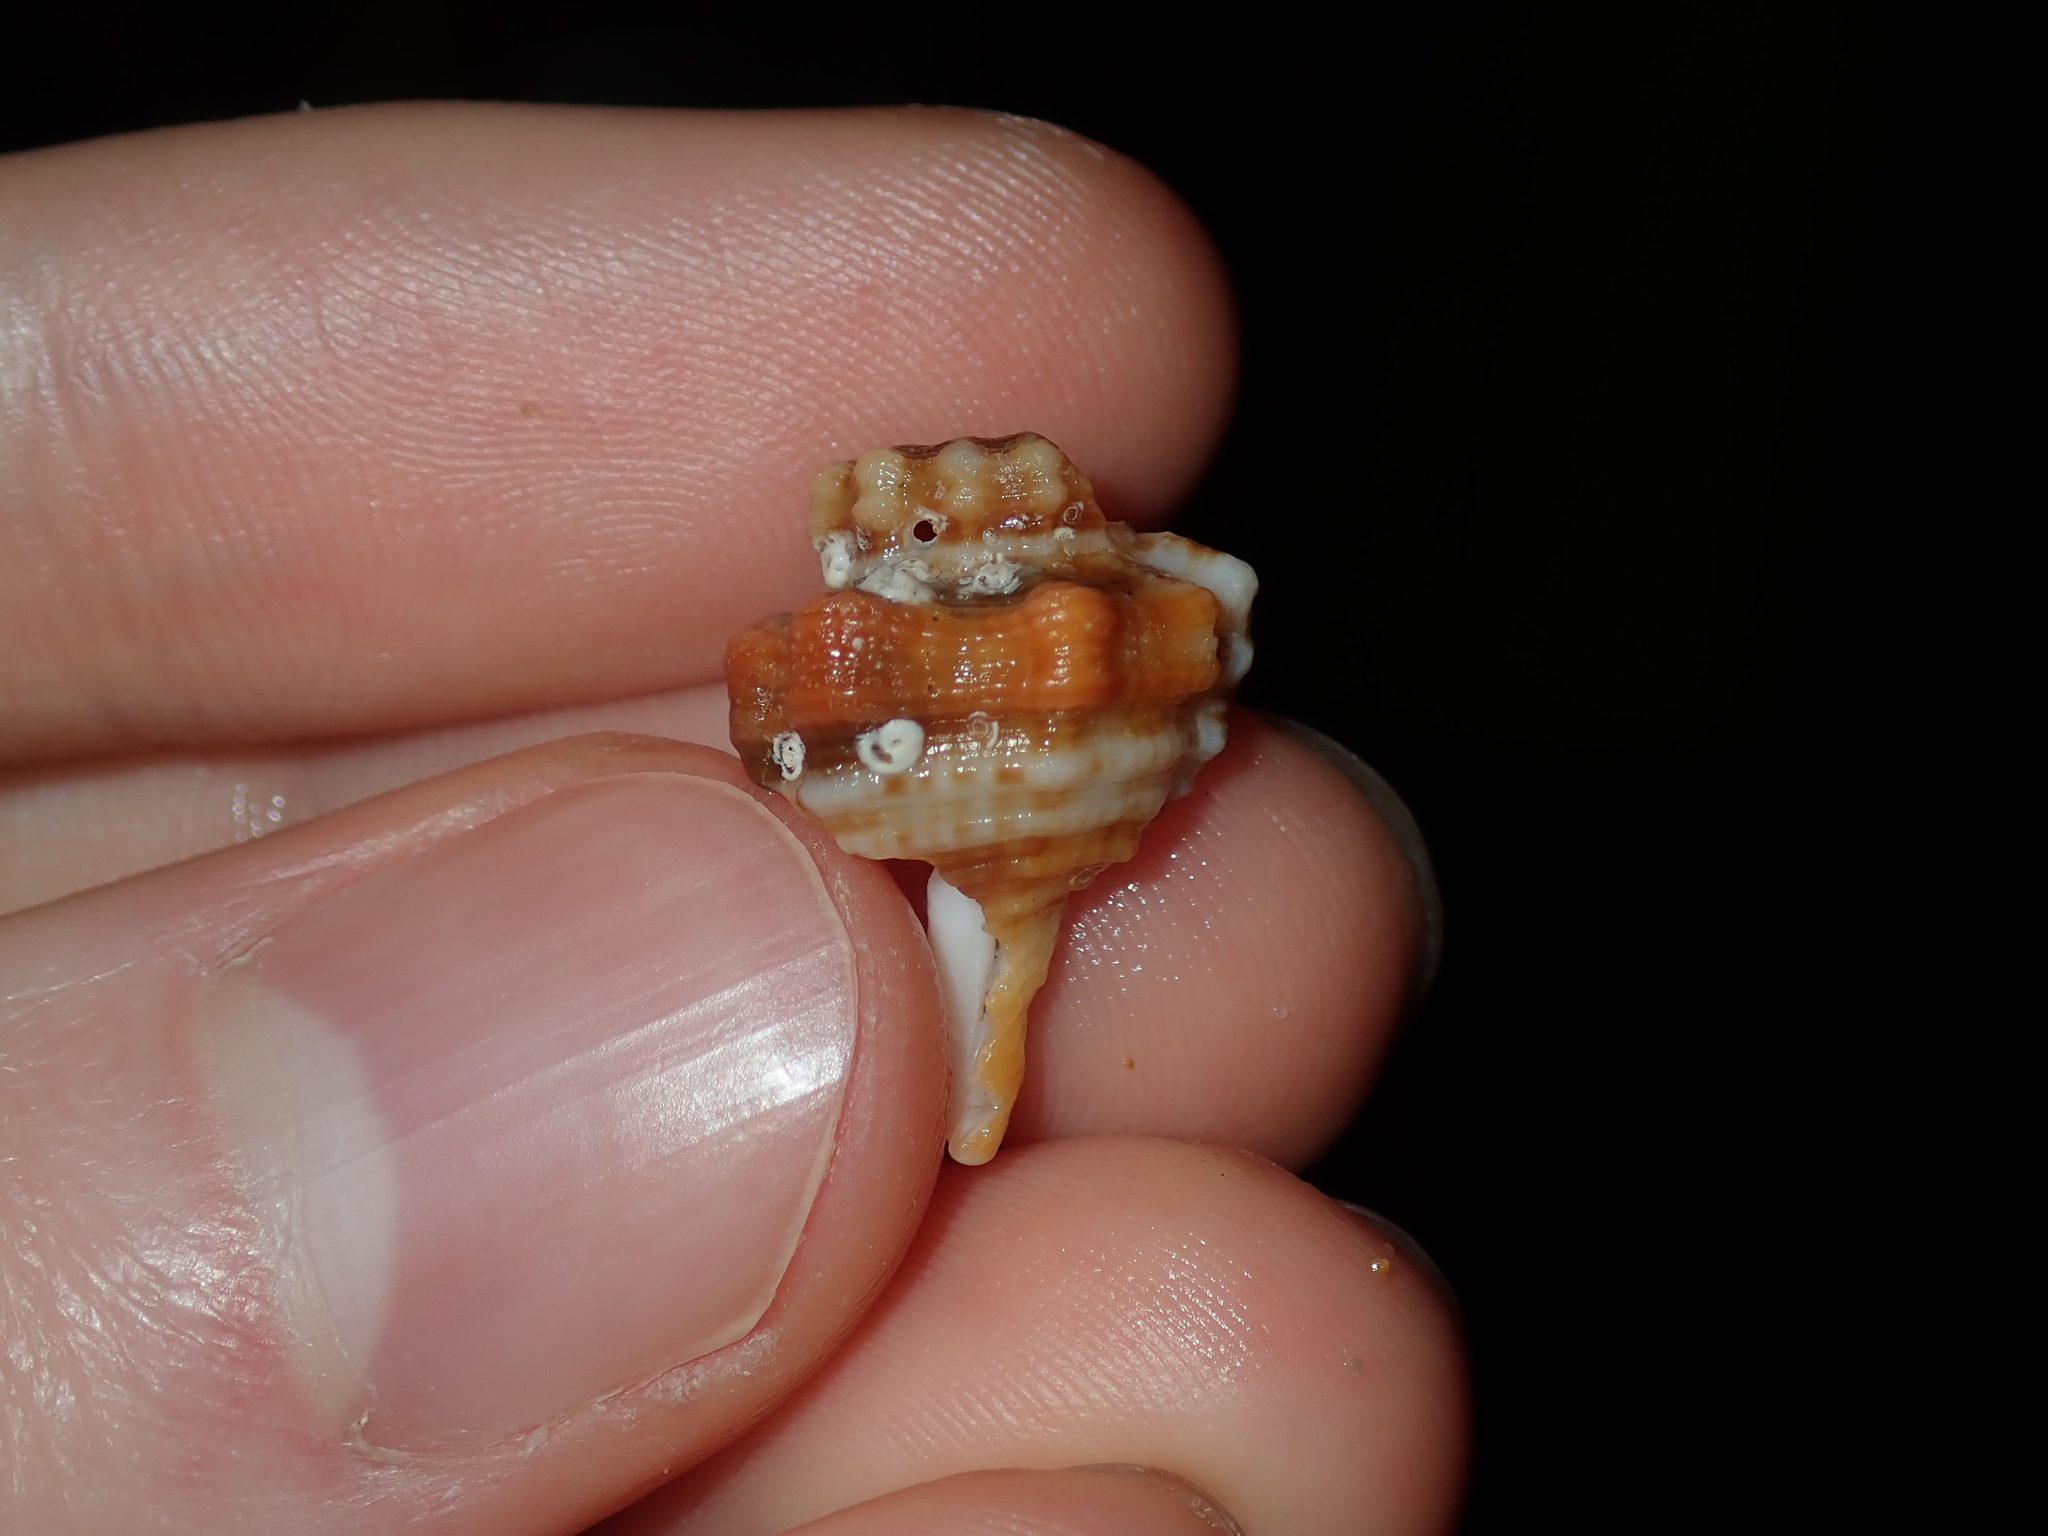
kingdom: Animalia
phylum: Mollusca
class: Gastropoda
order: Littorinimorpha
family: Cymatiidae
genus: Monoplex
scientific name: Monoplex exaratus
